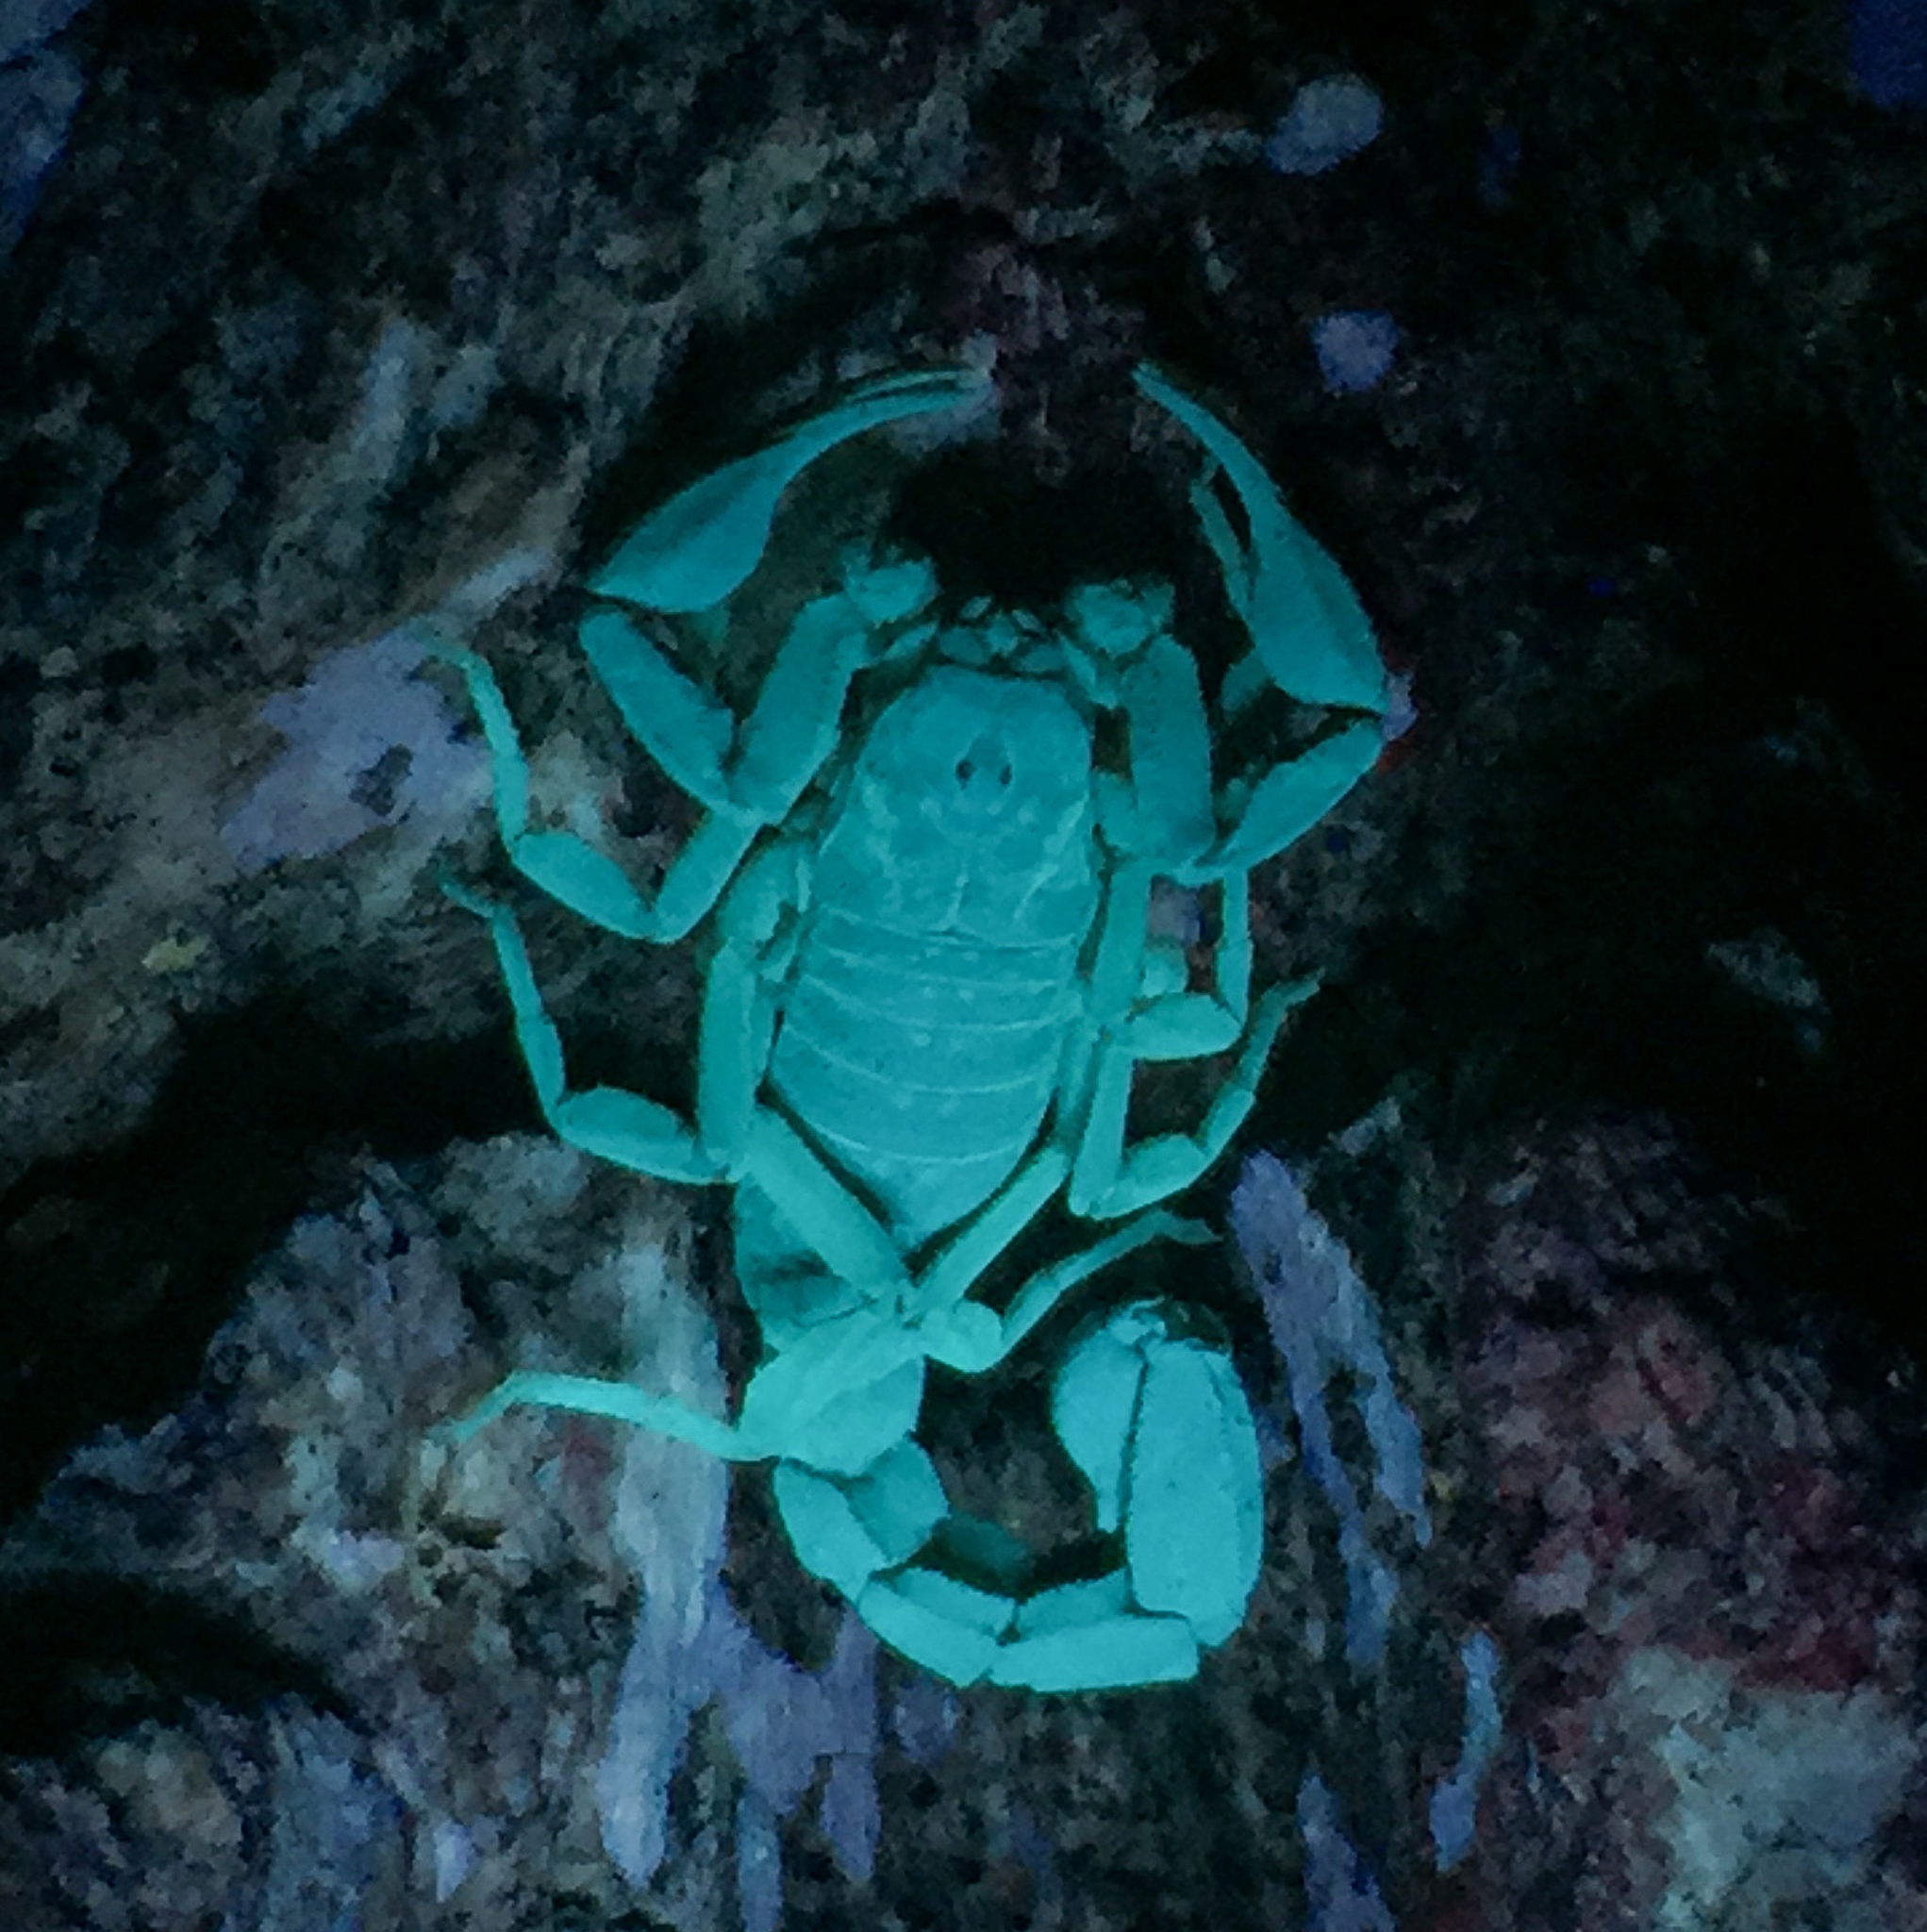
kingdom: Animalia
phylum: Arthropoda
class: Arachnida
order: Scorpiones
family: Vaejovidae
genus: Vaejovis
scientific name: Vaejovis carolinianus
